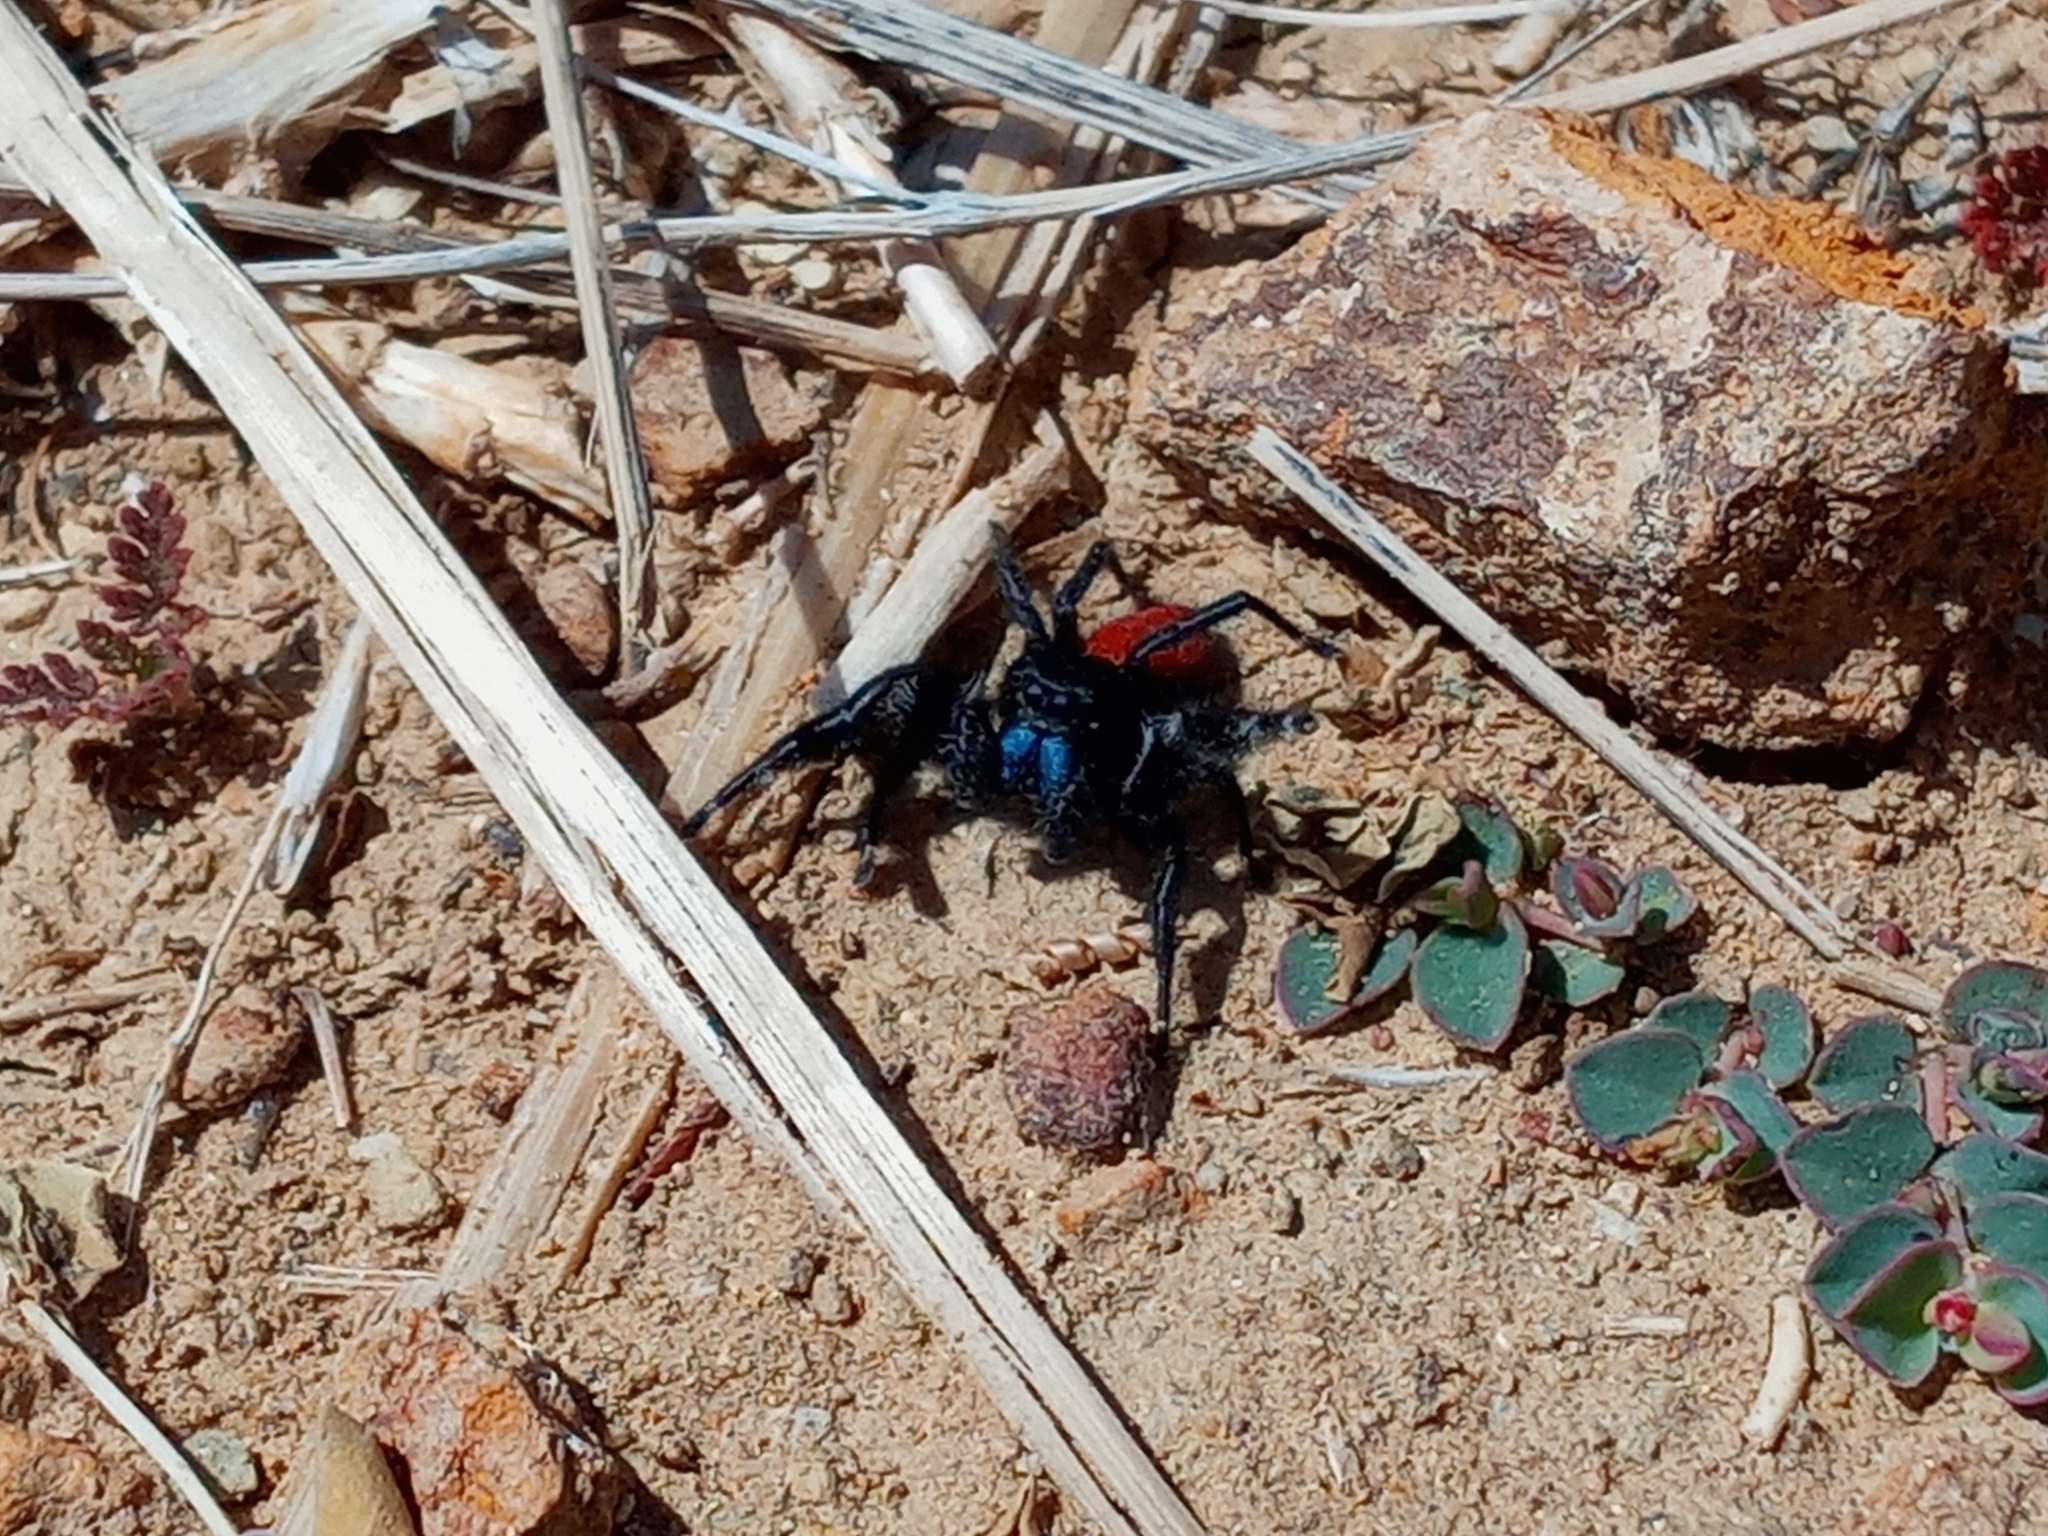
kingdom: Animalia
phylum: Arthropoda
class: Arachnida
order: Araneae
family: Salticidae
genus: Phidippus
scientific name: Phidippus johnsoni
